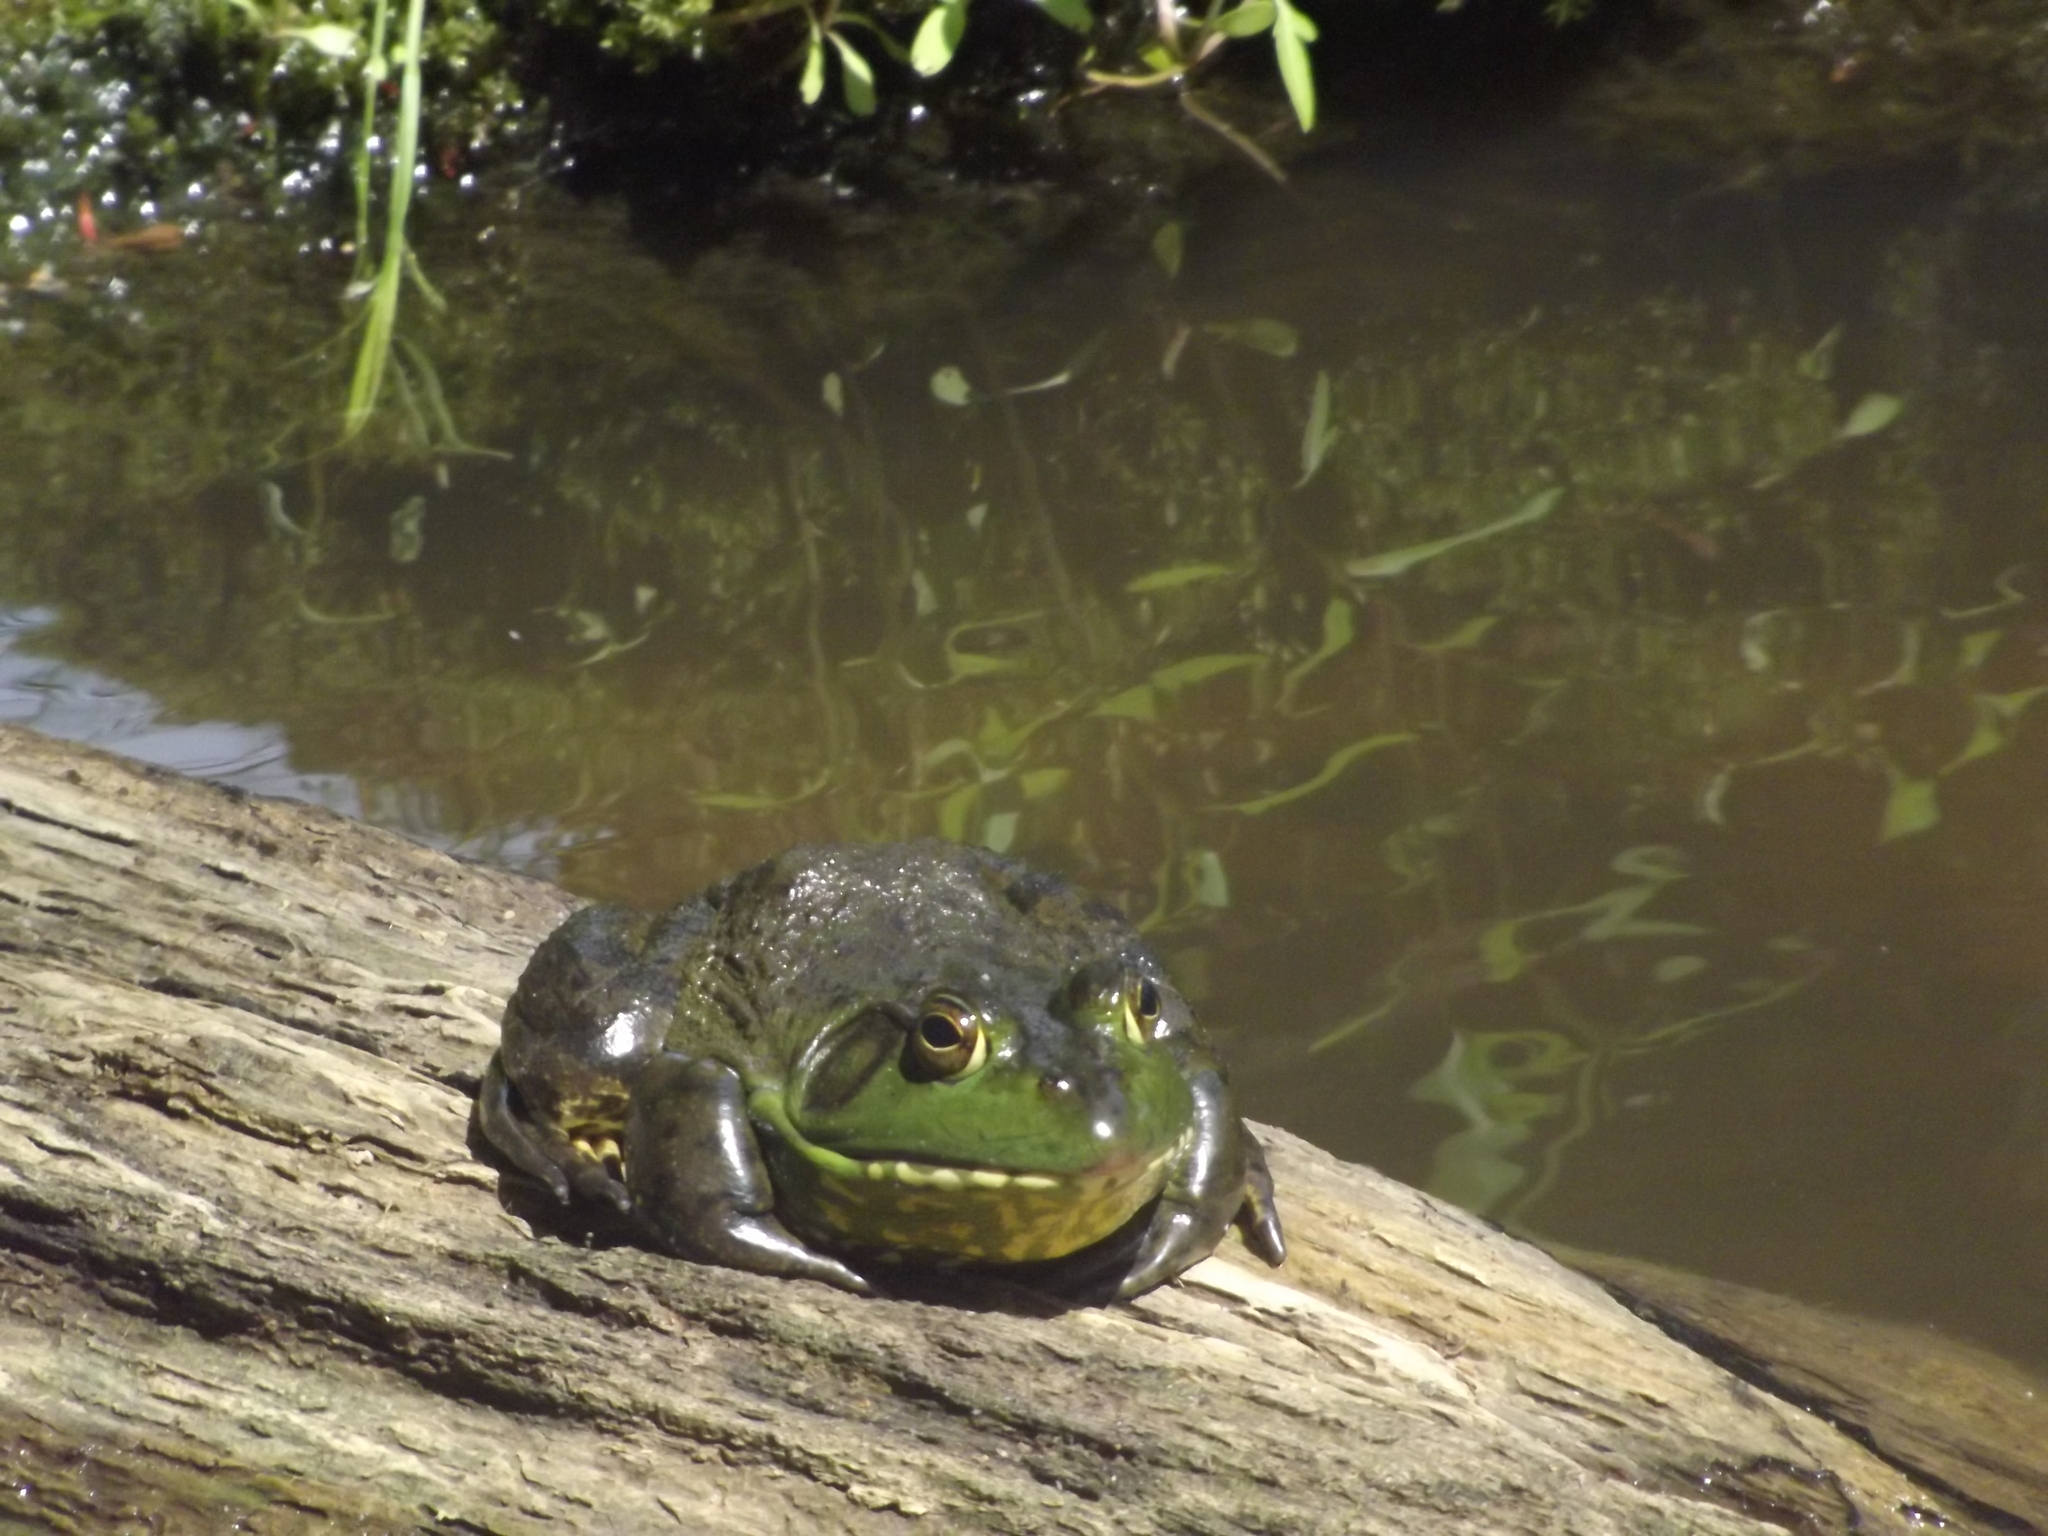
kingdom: Animalia
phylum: Chordata
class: Amphibia
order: Anura
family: Ranidae
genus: Lithobates
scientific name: Lithobates catesbeianus
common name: American bullfrog
